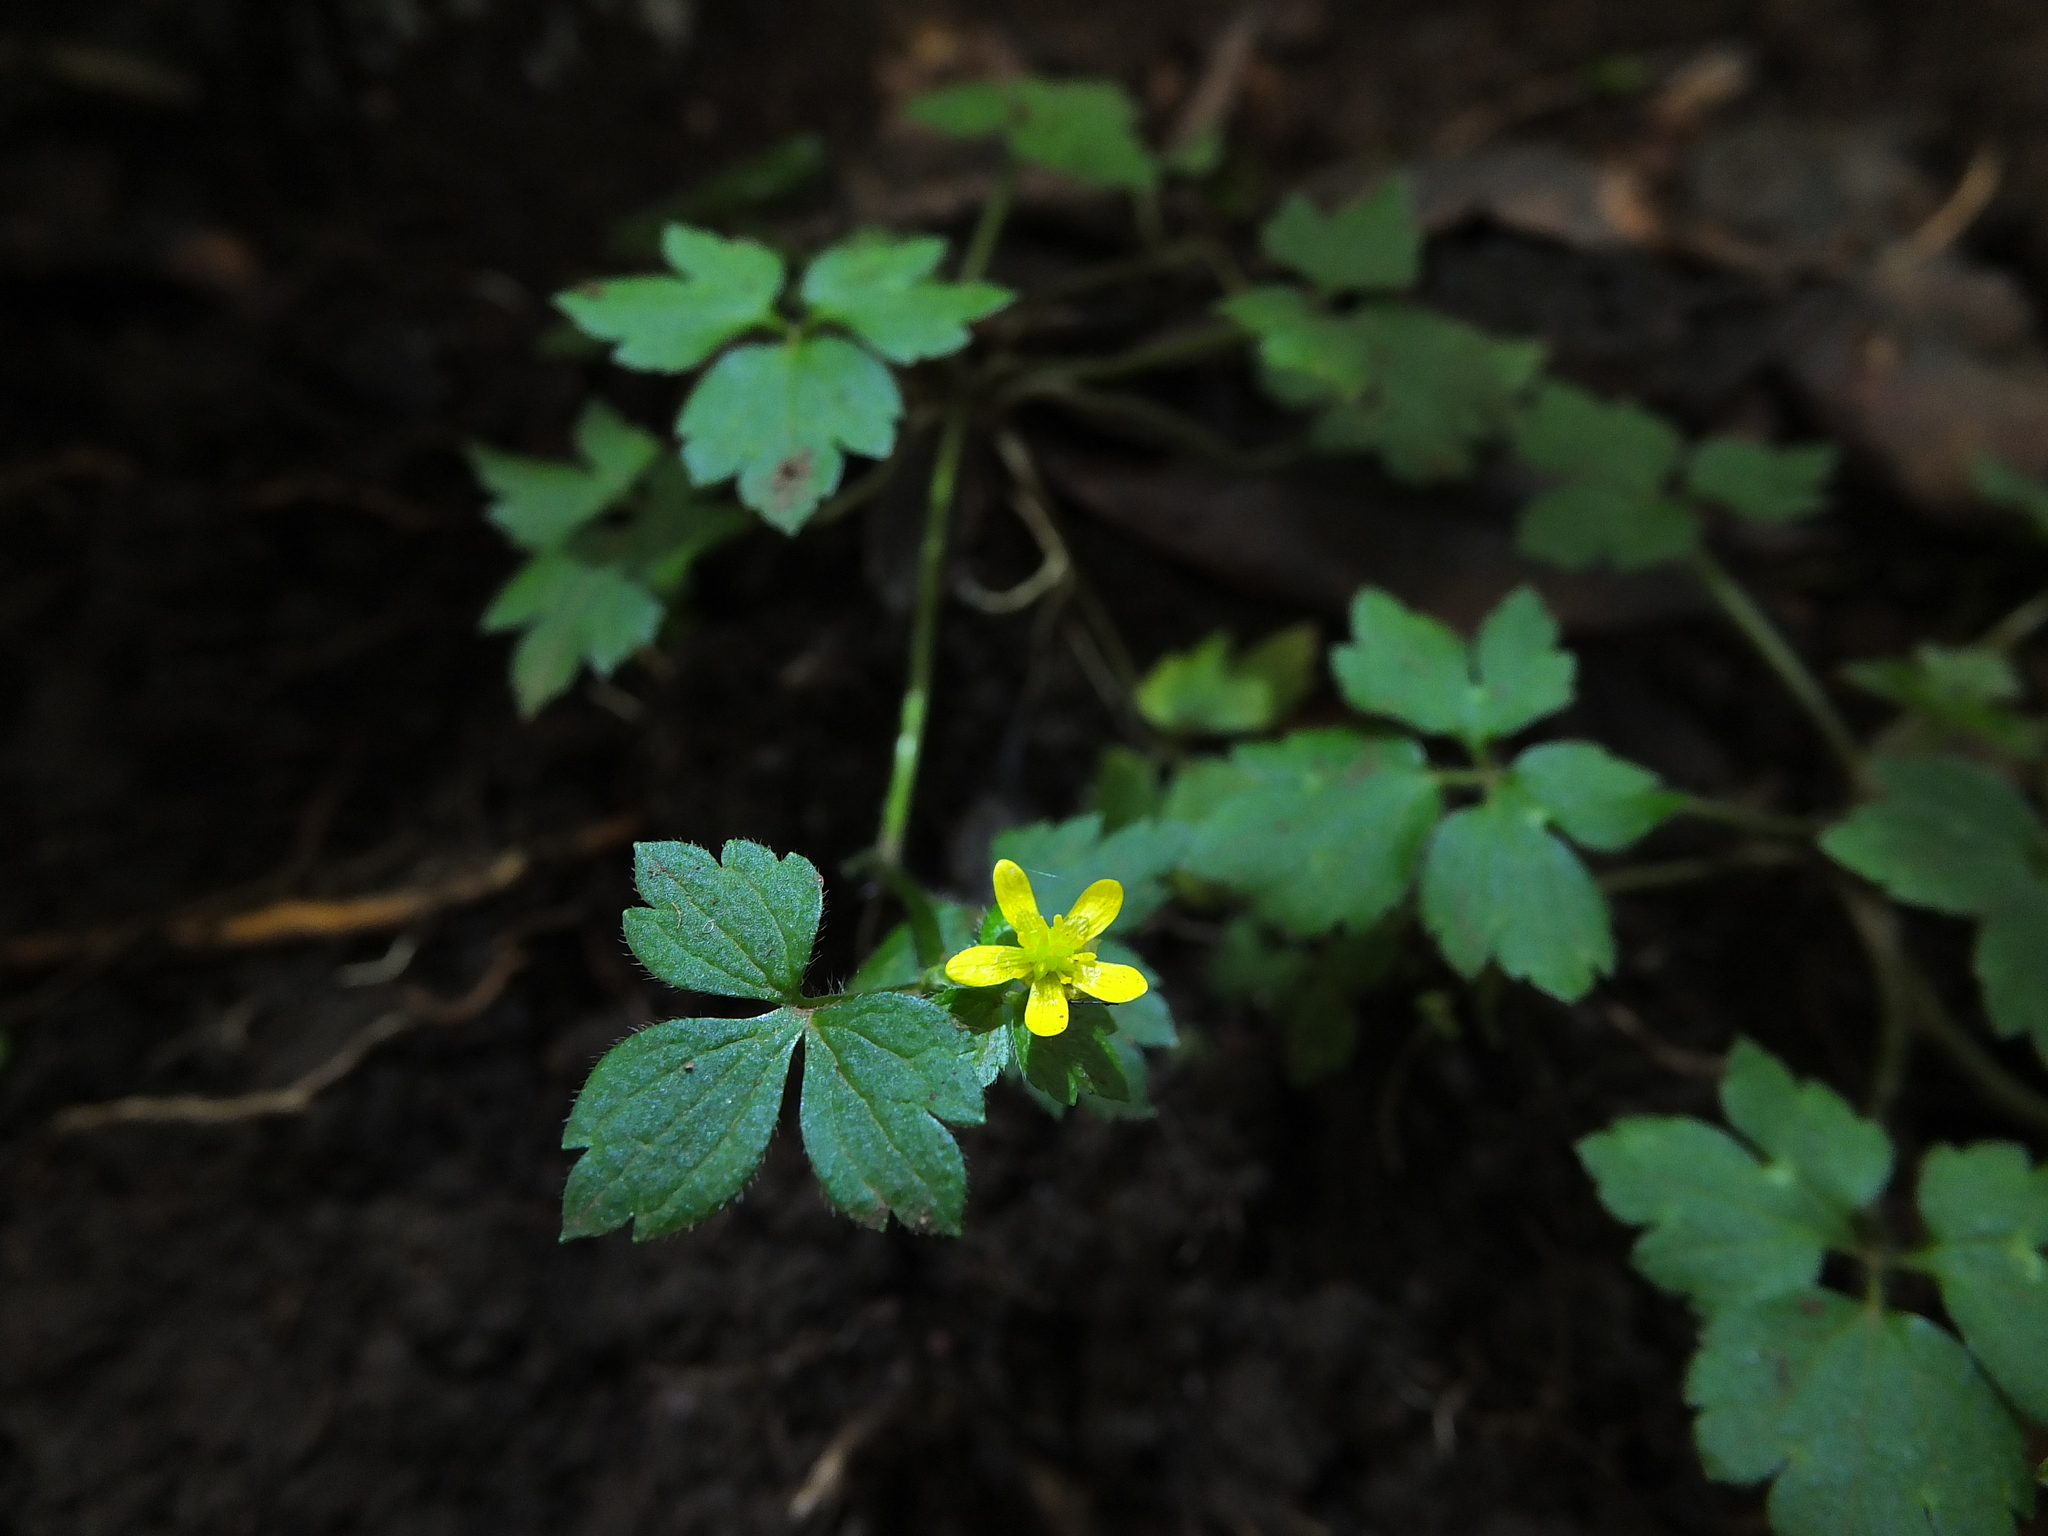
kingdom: Plantae
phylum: Tracheophyta
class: Magnoliopsida
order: Ranunculales
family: Ranunculaceae
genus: Ranunculus
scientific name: Ranunculus wallichianus
